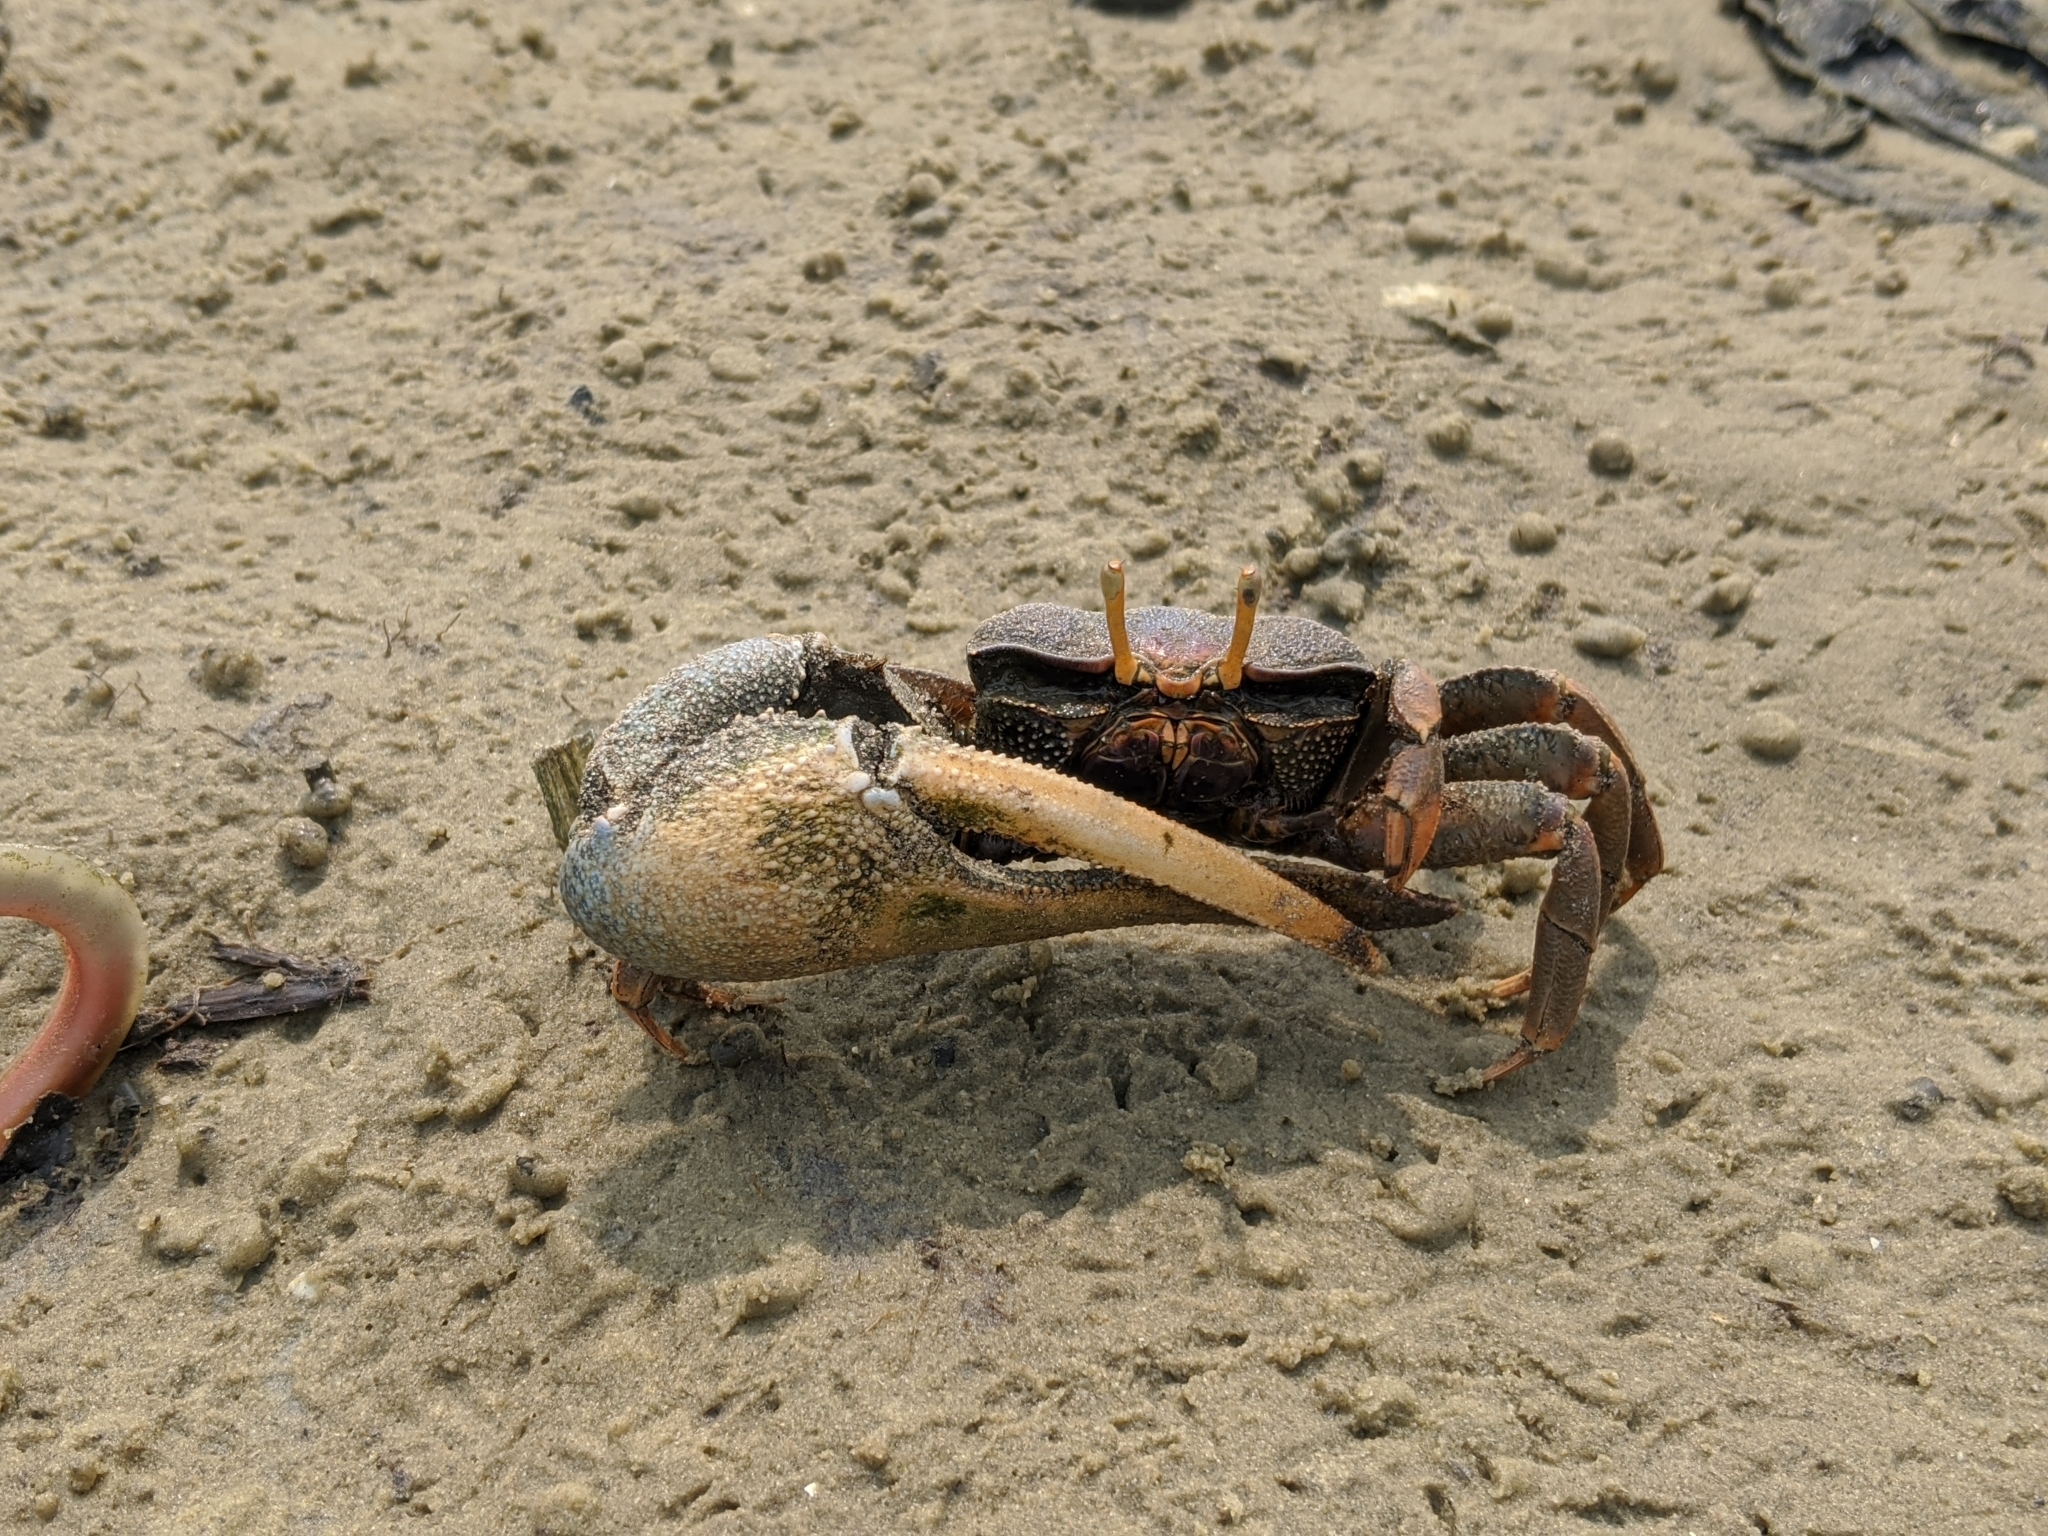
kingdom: Animalia
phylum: Arthropoda
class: Malacostraca
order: Decapoda
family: Ocypodidae
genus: Afruca
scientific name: Afruca tangeri
